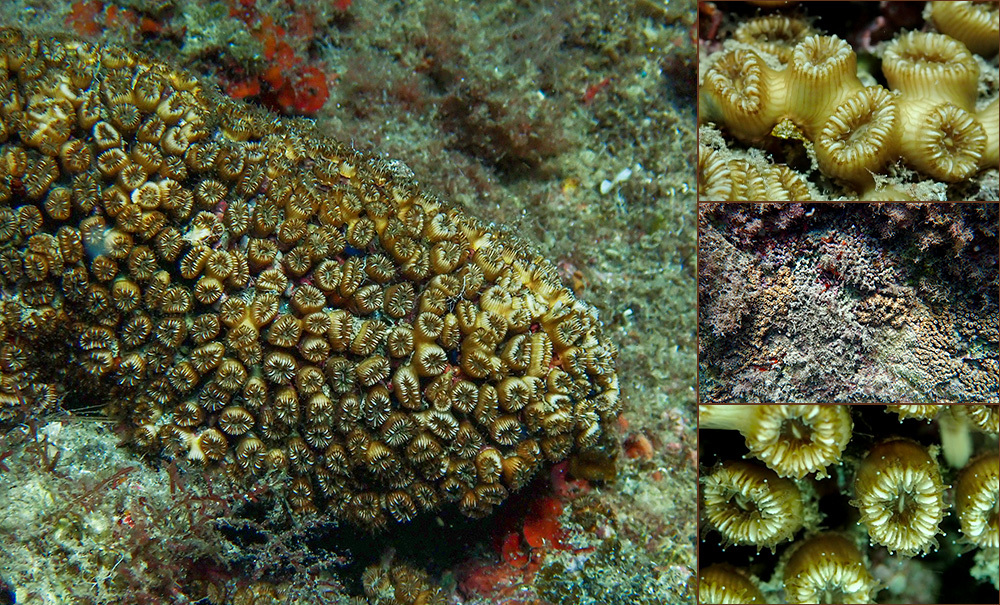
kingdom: Animalia
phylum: Cnidaria
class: Anthozoa
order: Scleractinia
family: Cladocoridae
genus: Cladocora
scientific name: Cladocora caespitosa
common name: Cladocora
